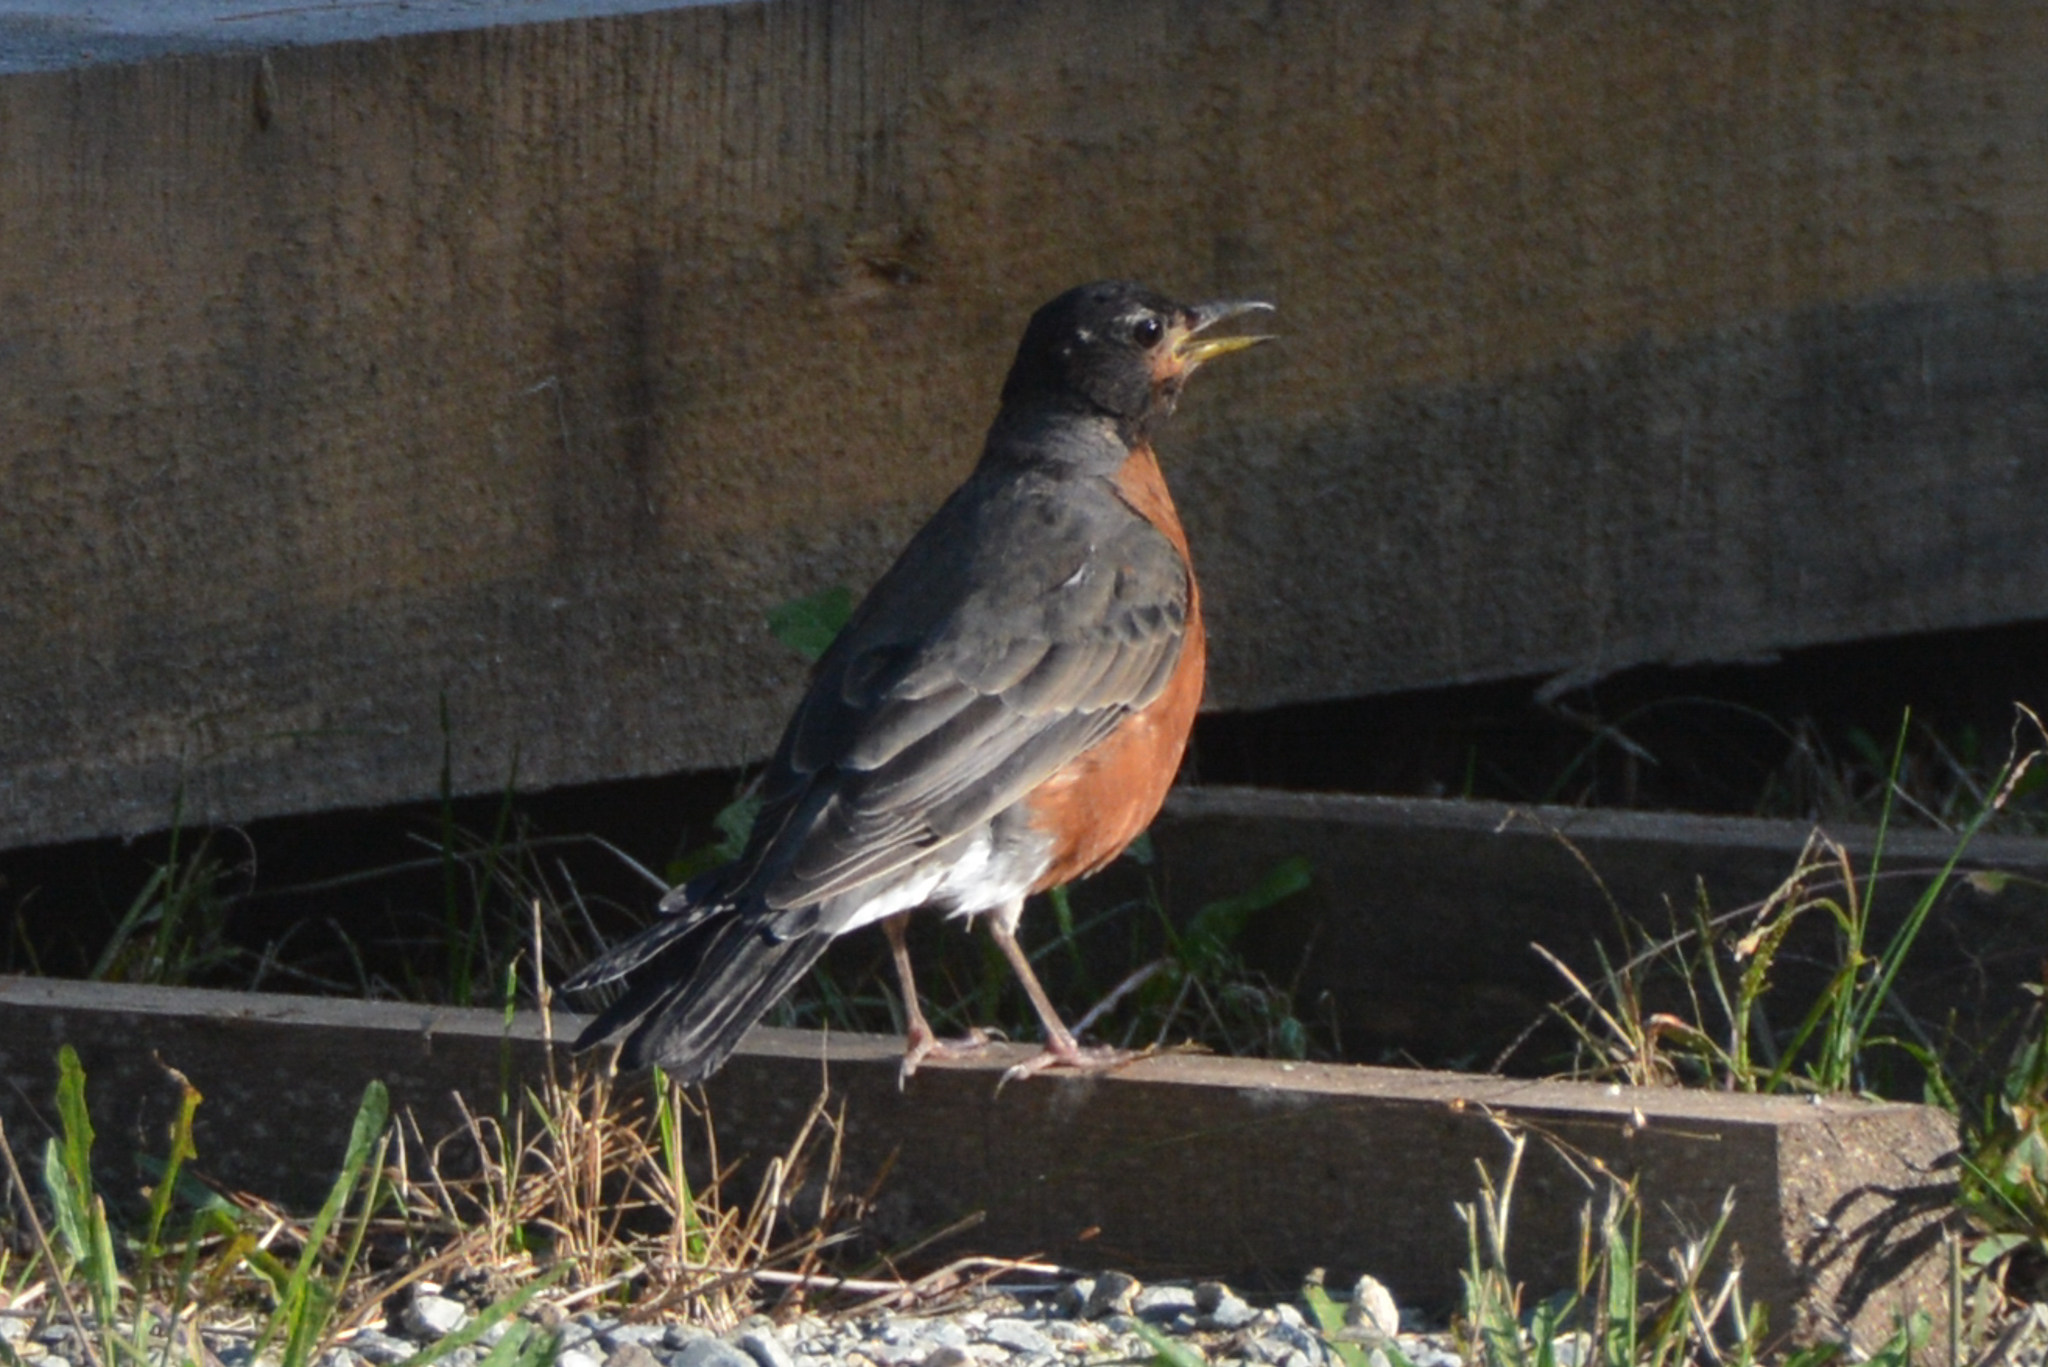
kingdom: Animalia
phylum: Chordata
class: Aves
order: Passeriformes
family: Turdidae
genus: Turdus
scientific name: Turdus migratorius
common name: American robin
